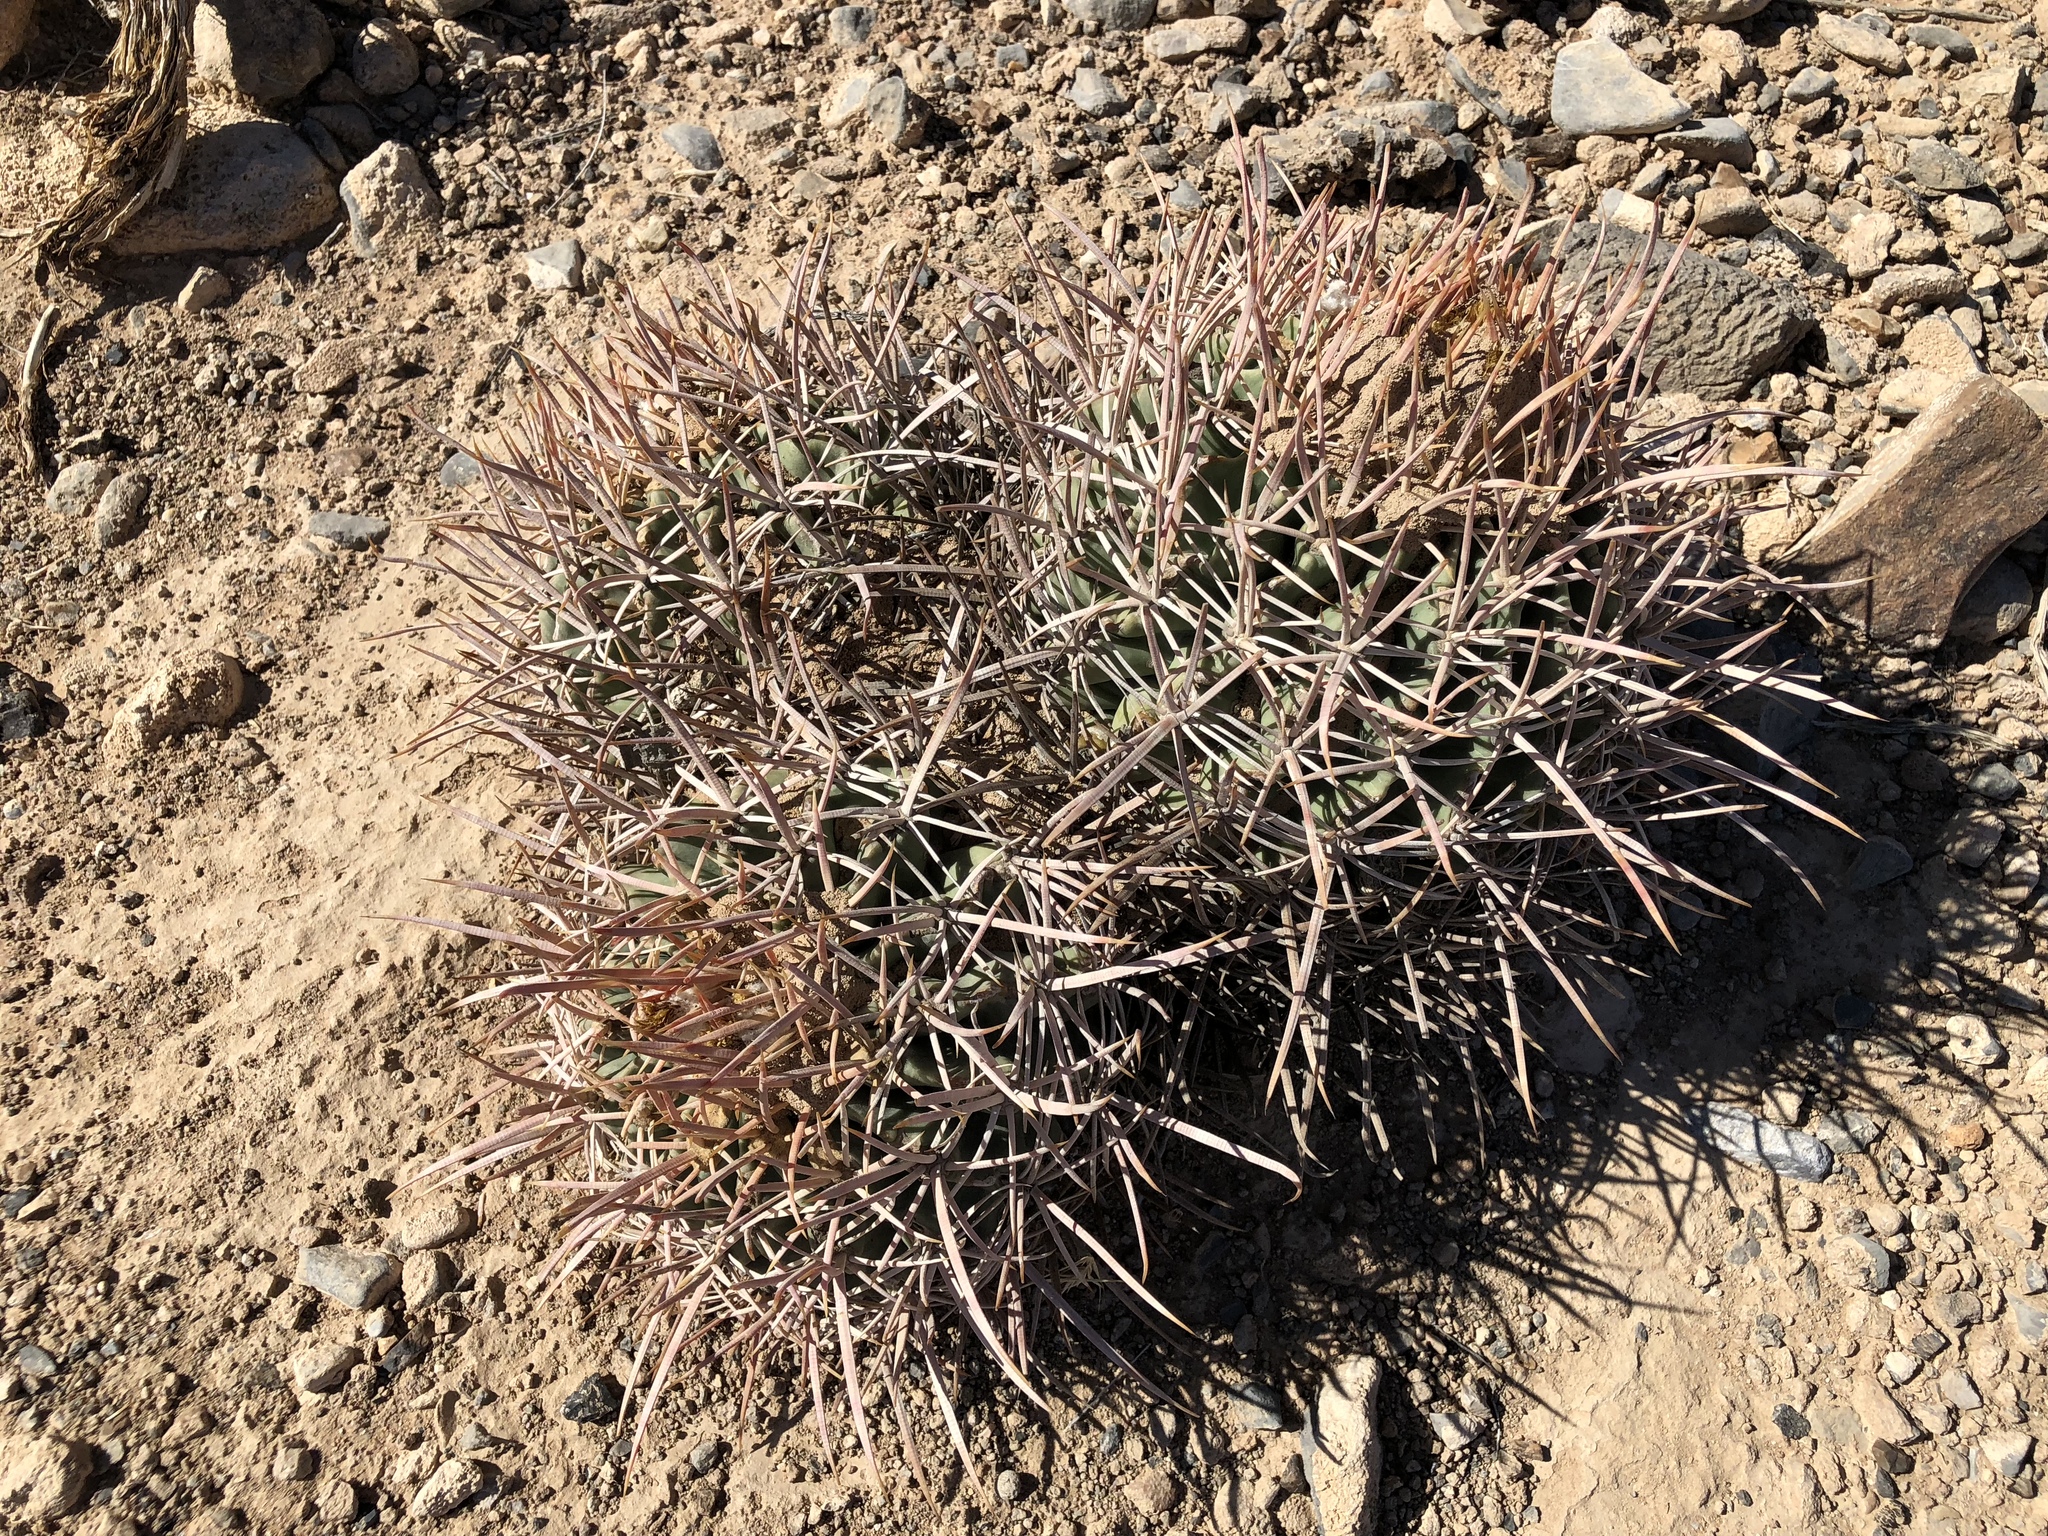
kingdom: Plantae
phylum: Tracheophyta
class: Magnoliopsida
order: Caryophyllales
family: Cactaceae
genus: Echinocactus
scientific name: Echinocactus polycephalus
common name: Cottontop cactus
